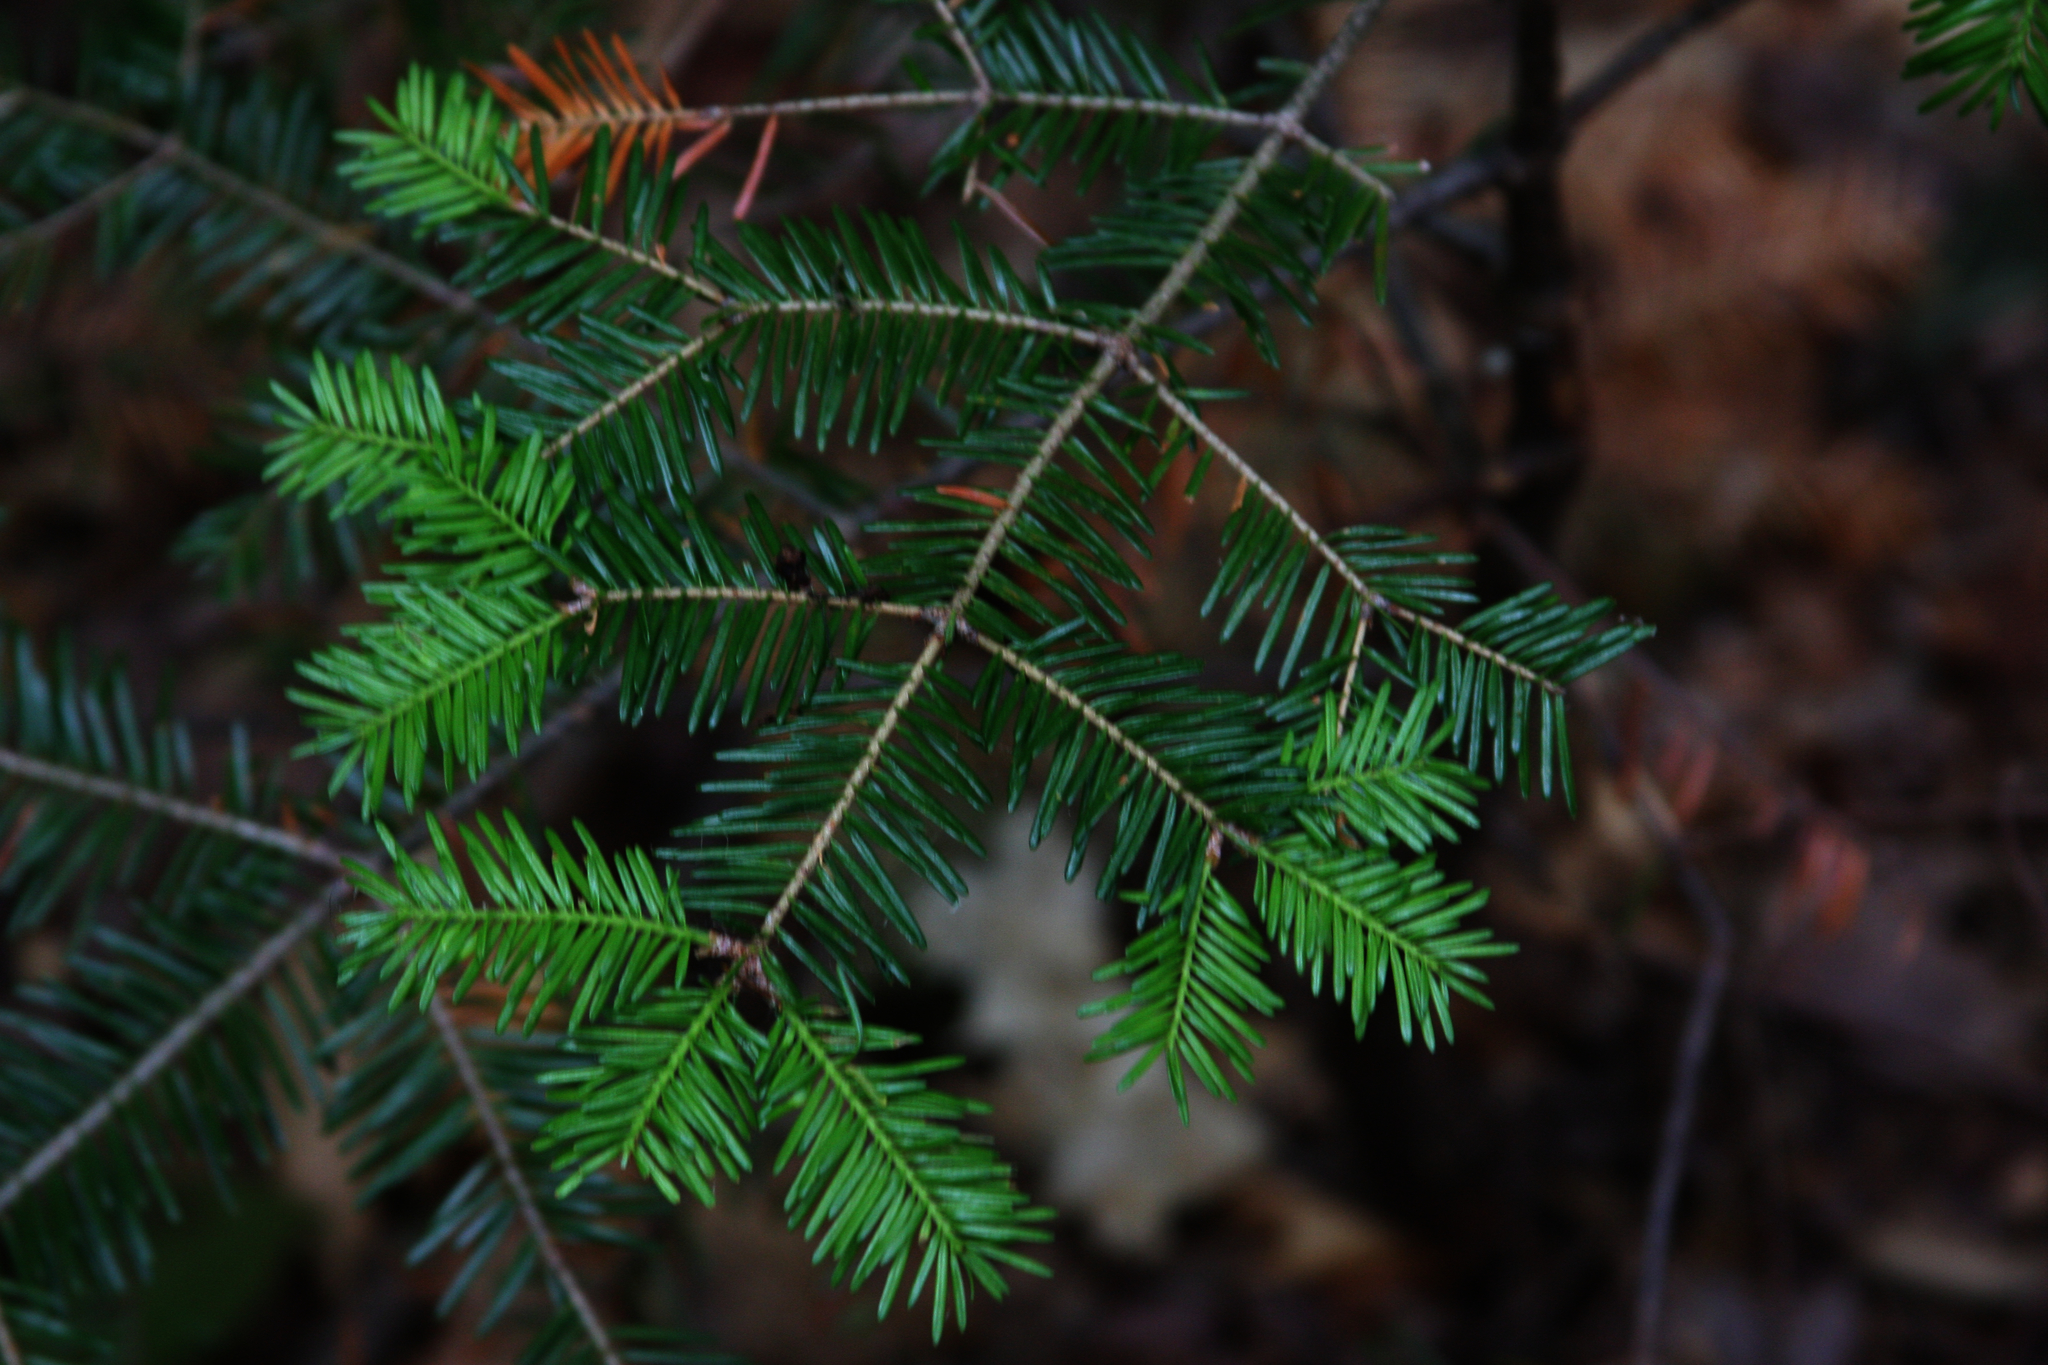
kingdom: Plantae
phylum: Tracheophyta
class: Pinopsida
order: Pinales
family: Pinaceae
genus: Abies
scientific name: Abies balsamea
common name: Balsam fir
